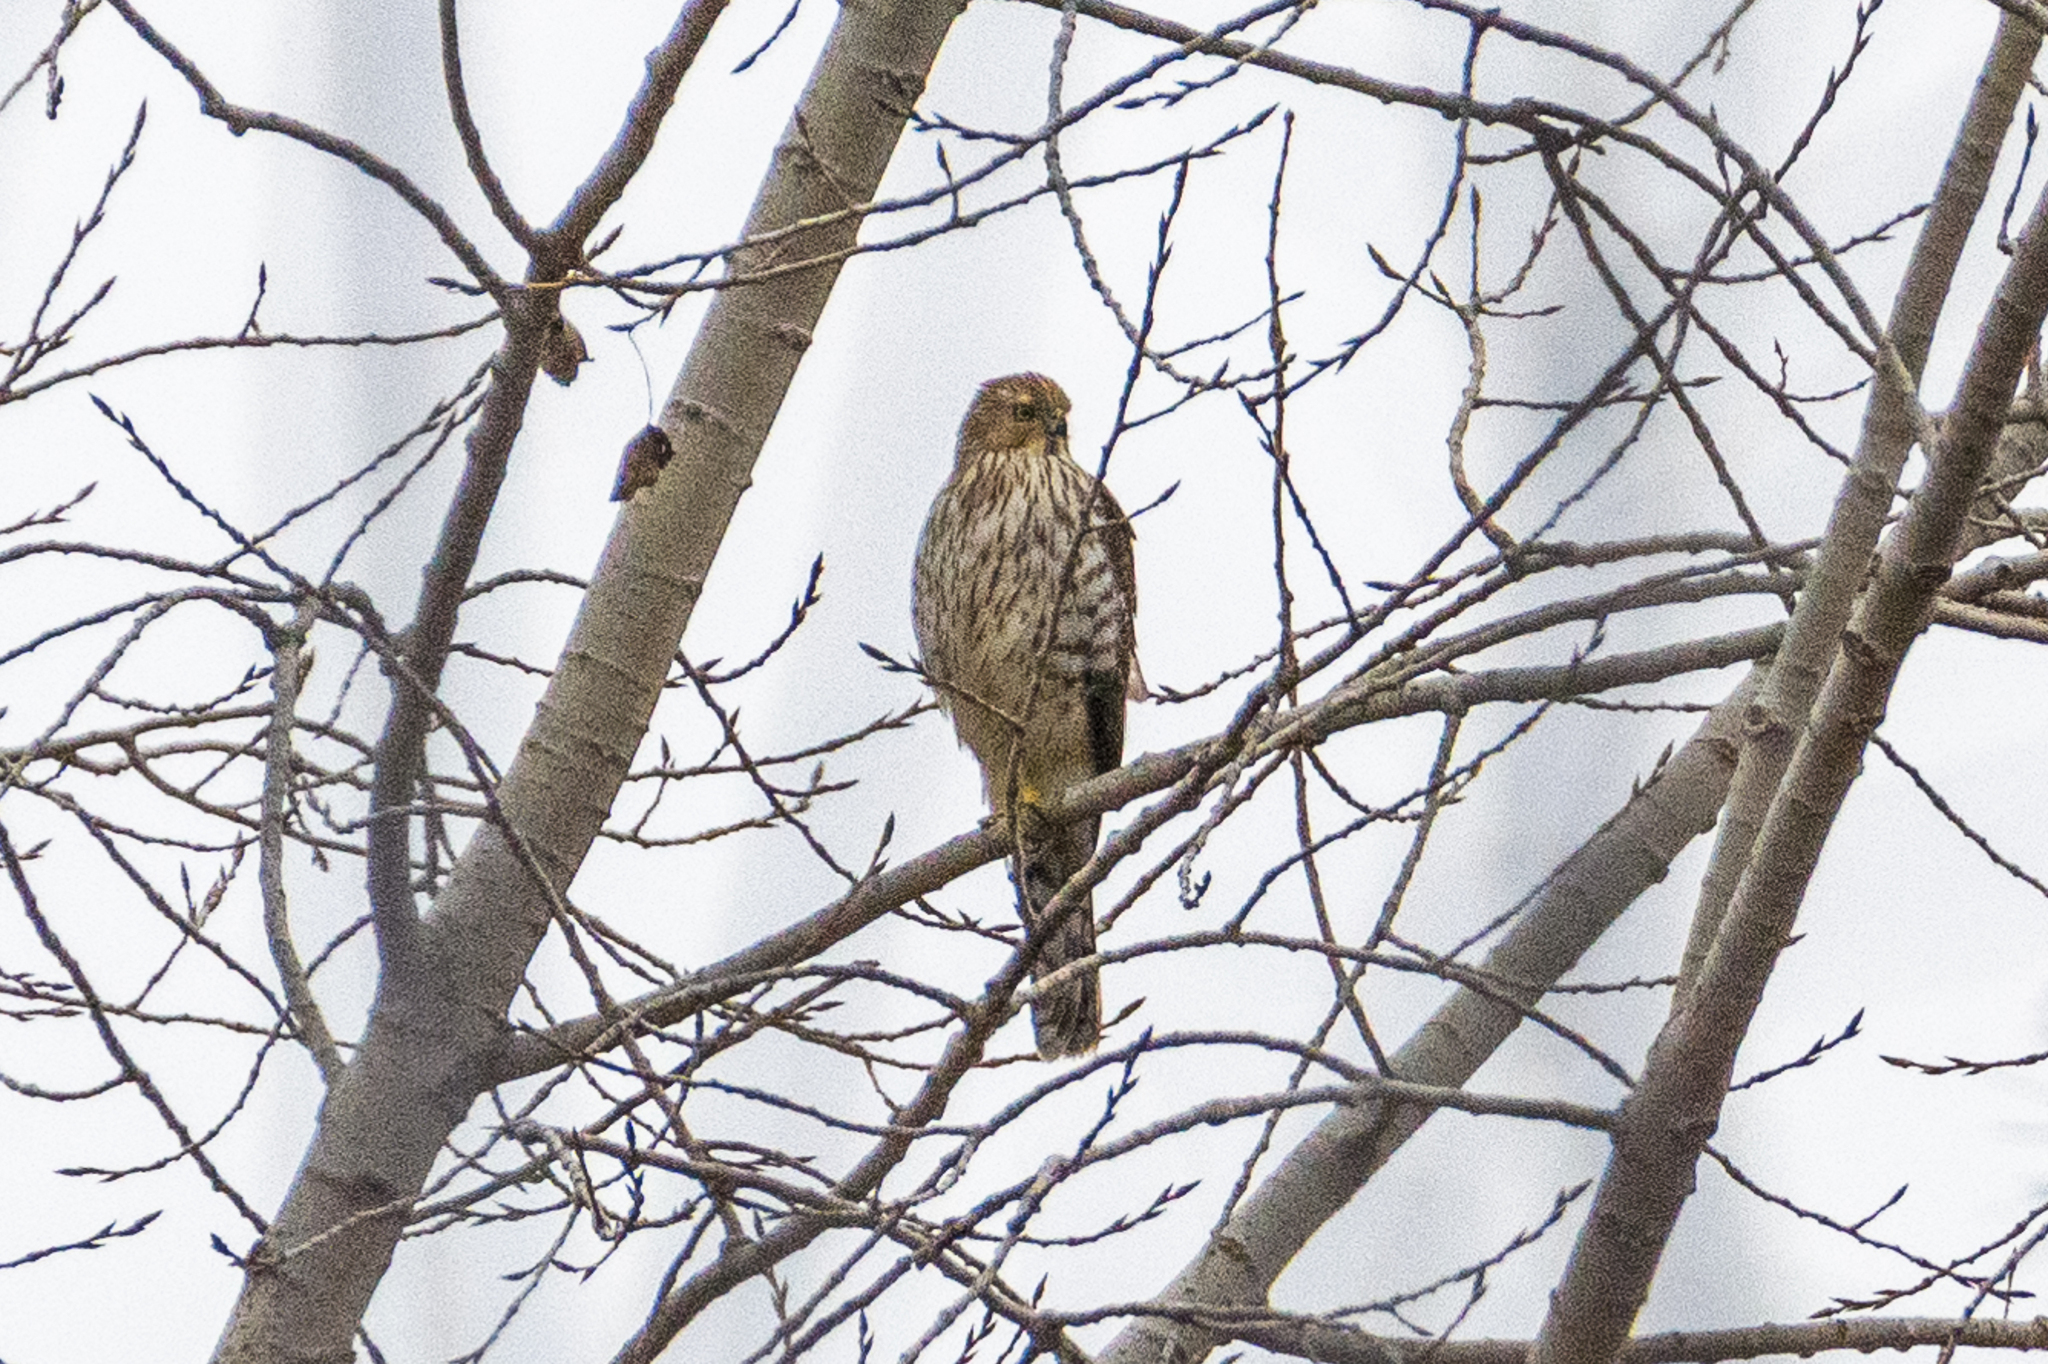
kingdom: Animalia
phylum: Chordata
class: Aves
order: Accipitriformes
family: Accipitridae
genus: Accipiter
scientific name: Accipiter cooperii
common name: Cooper's hawk
